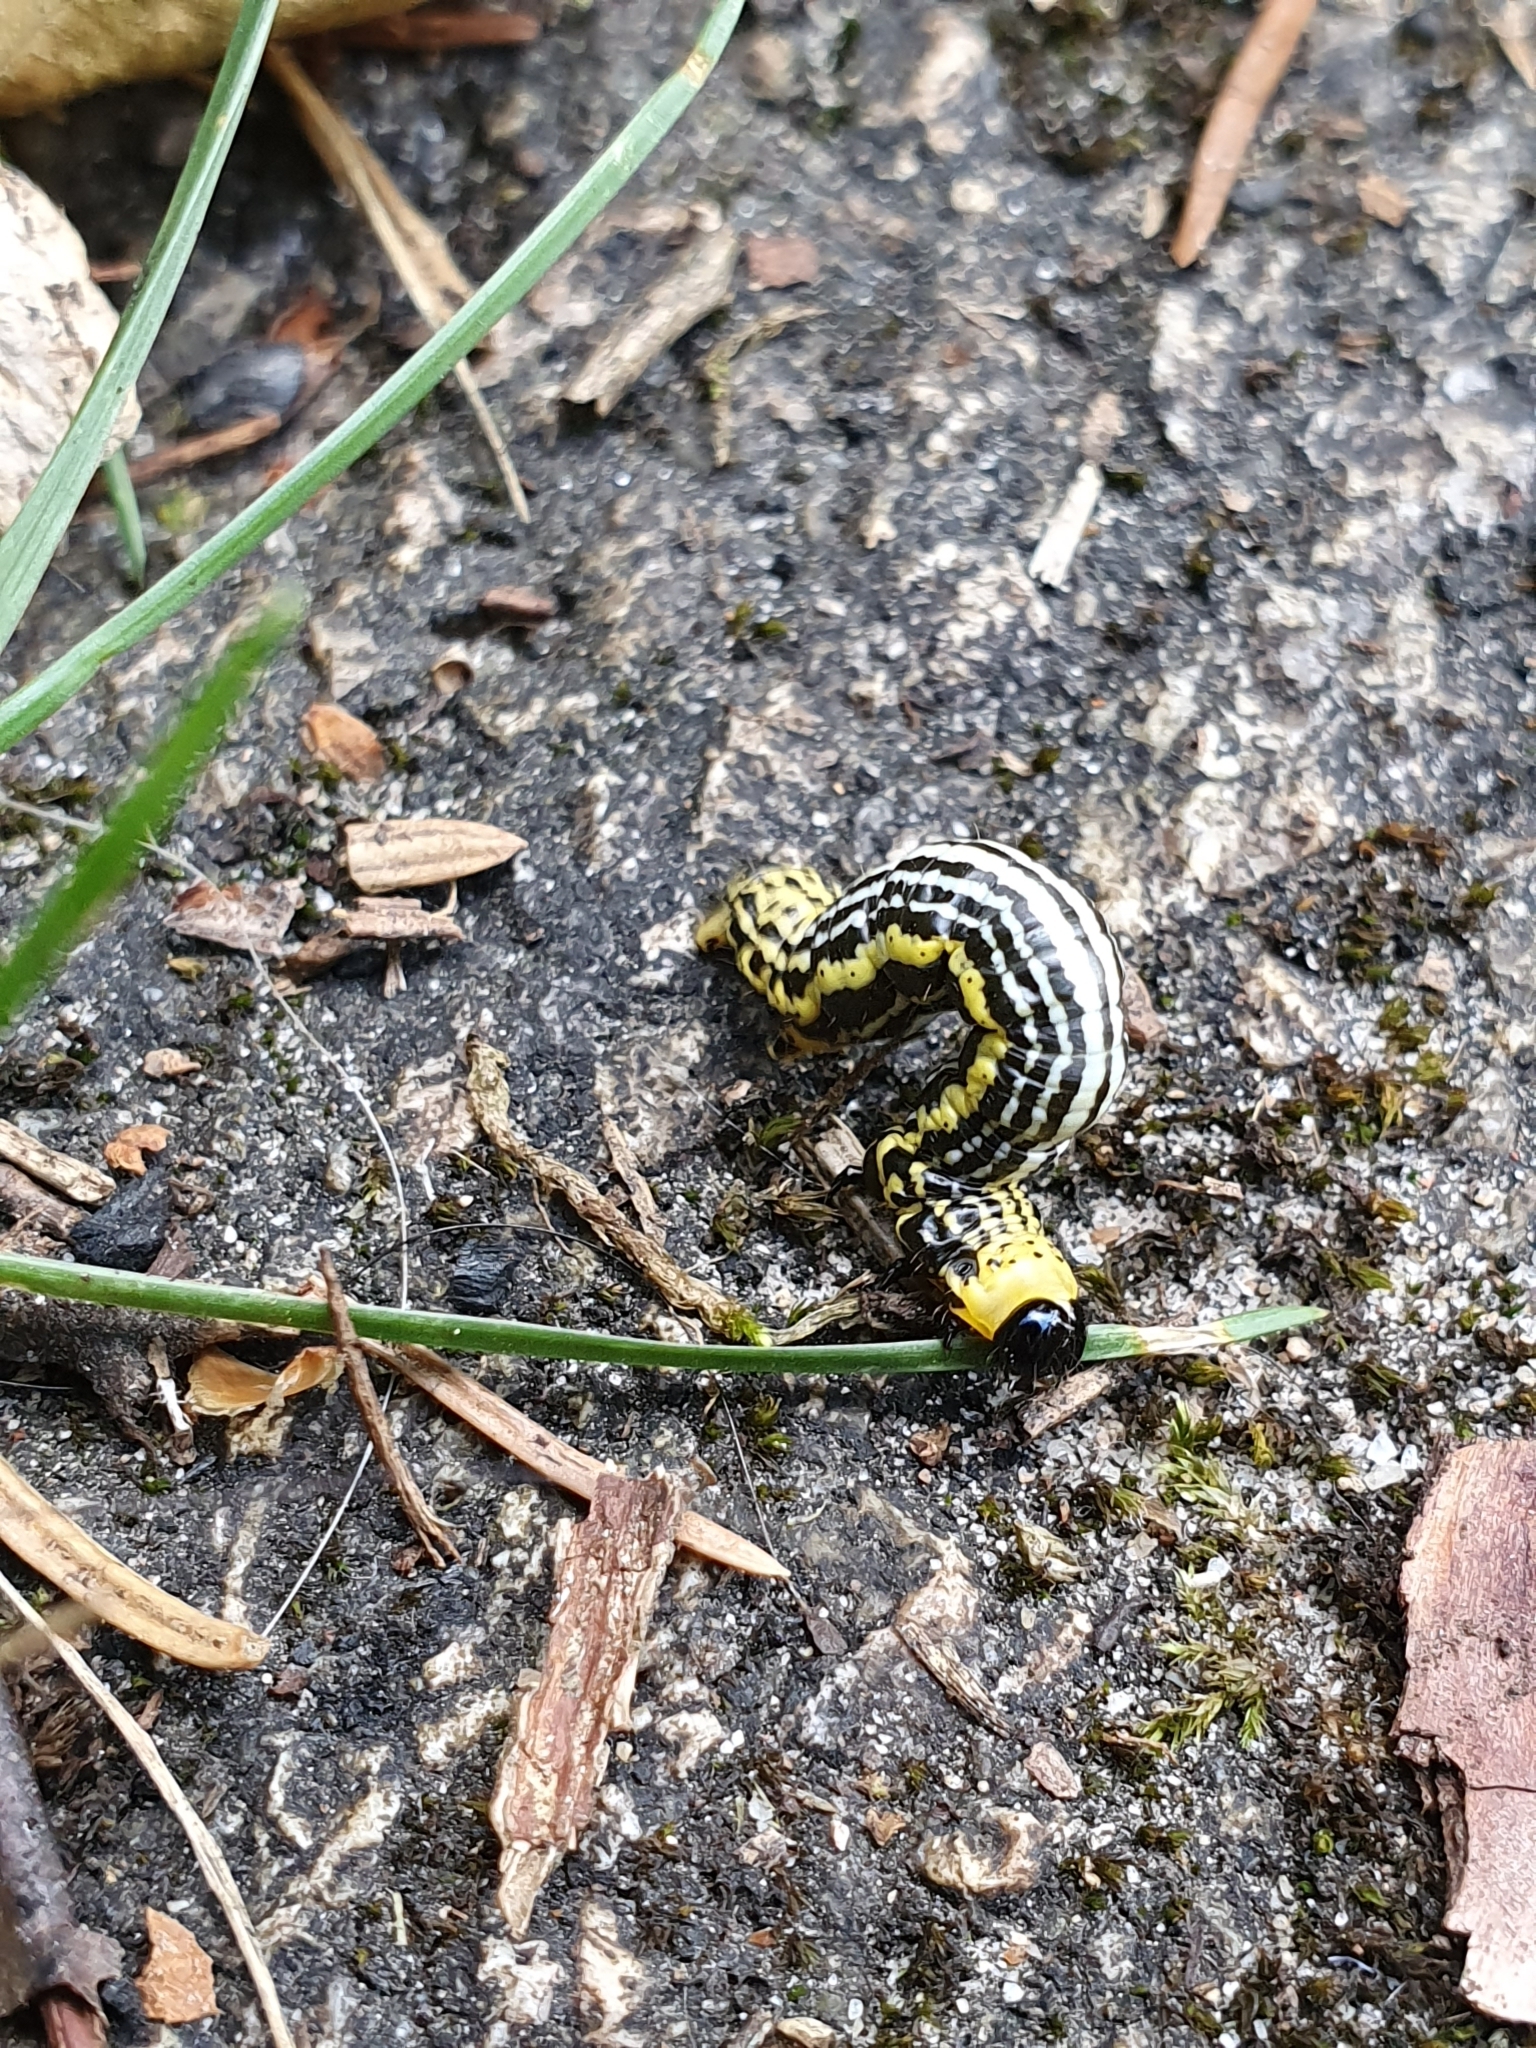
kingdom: Animalia
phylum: Arthropoda
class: Insecta
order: Lepidoptera
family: Geometridae
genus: Abraxas
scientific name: Abraxas sylvata
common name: Clouded magpie
